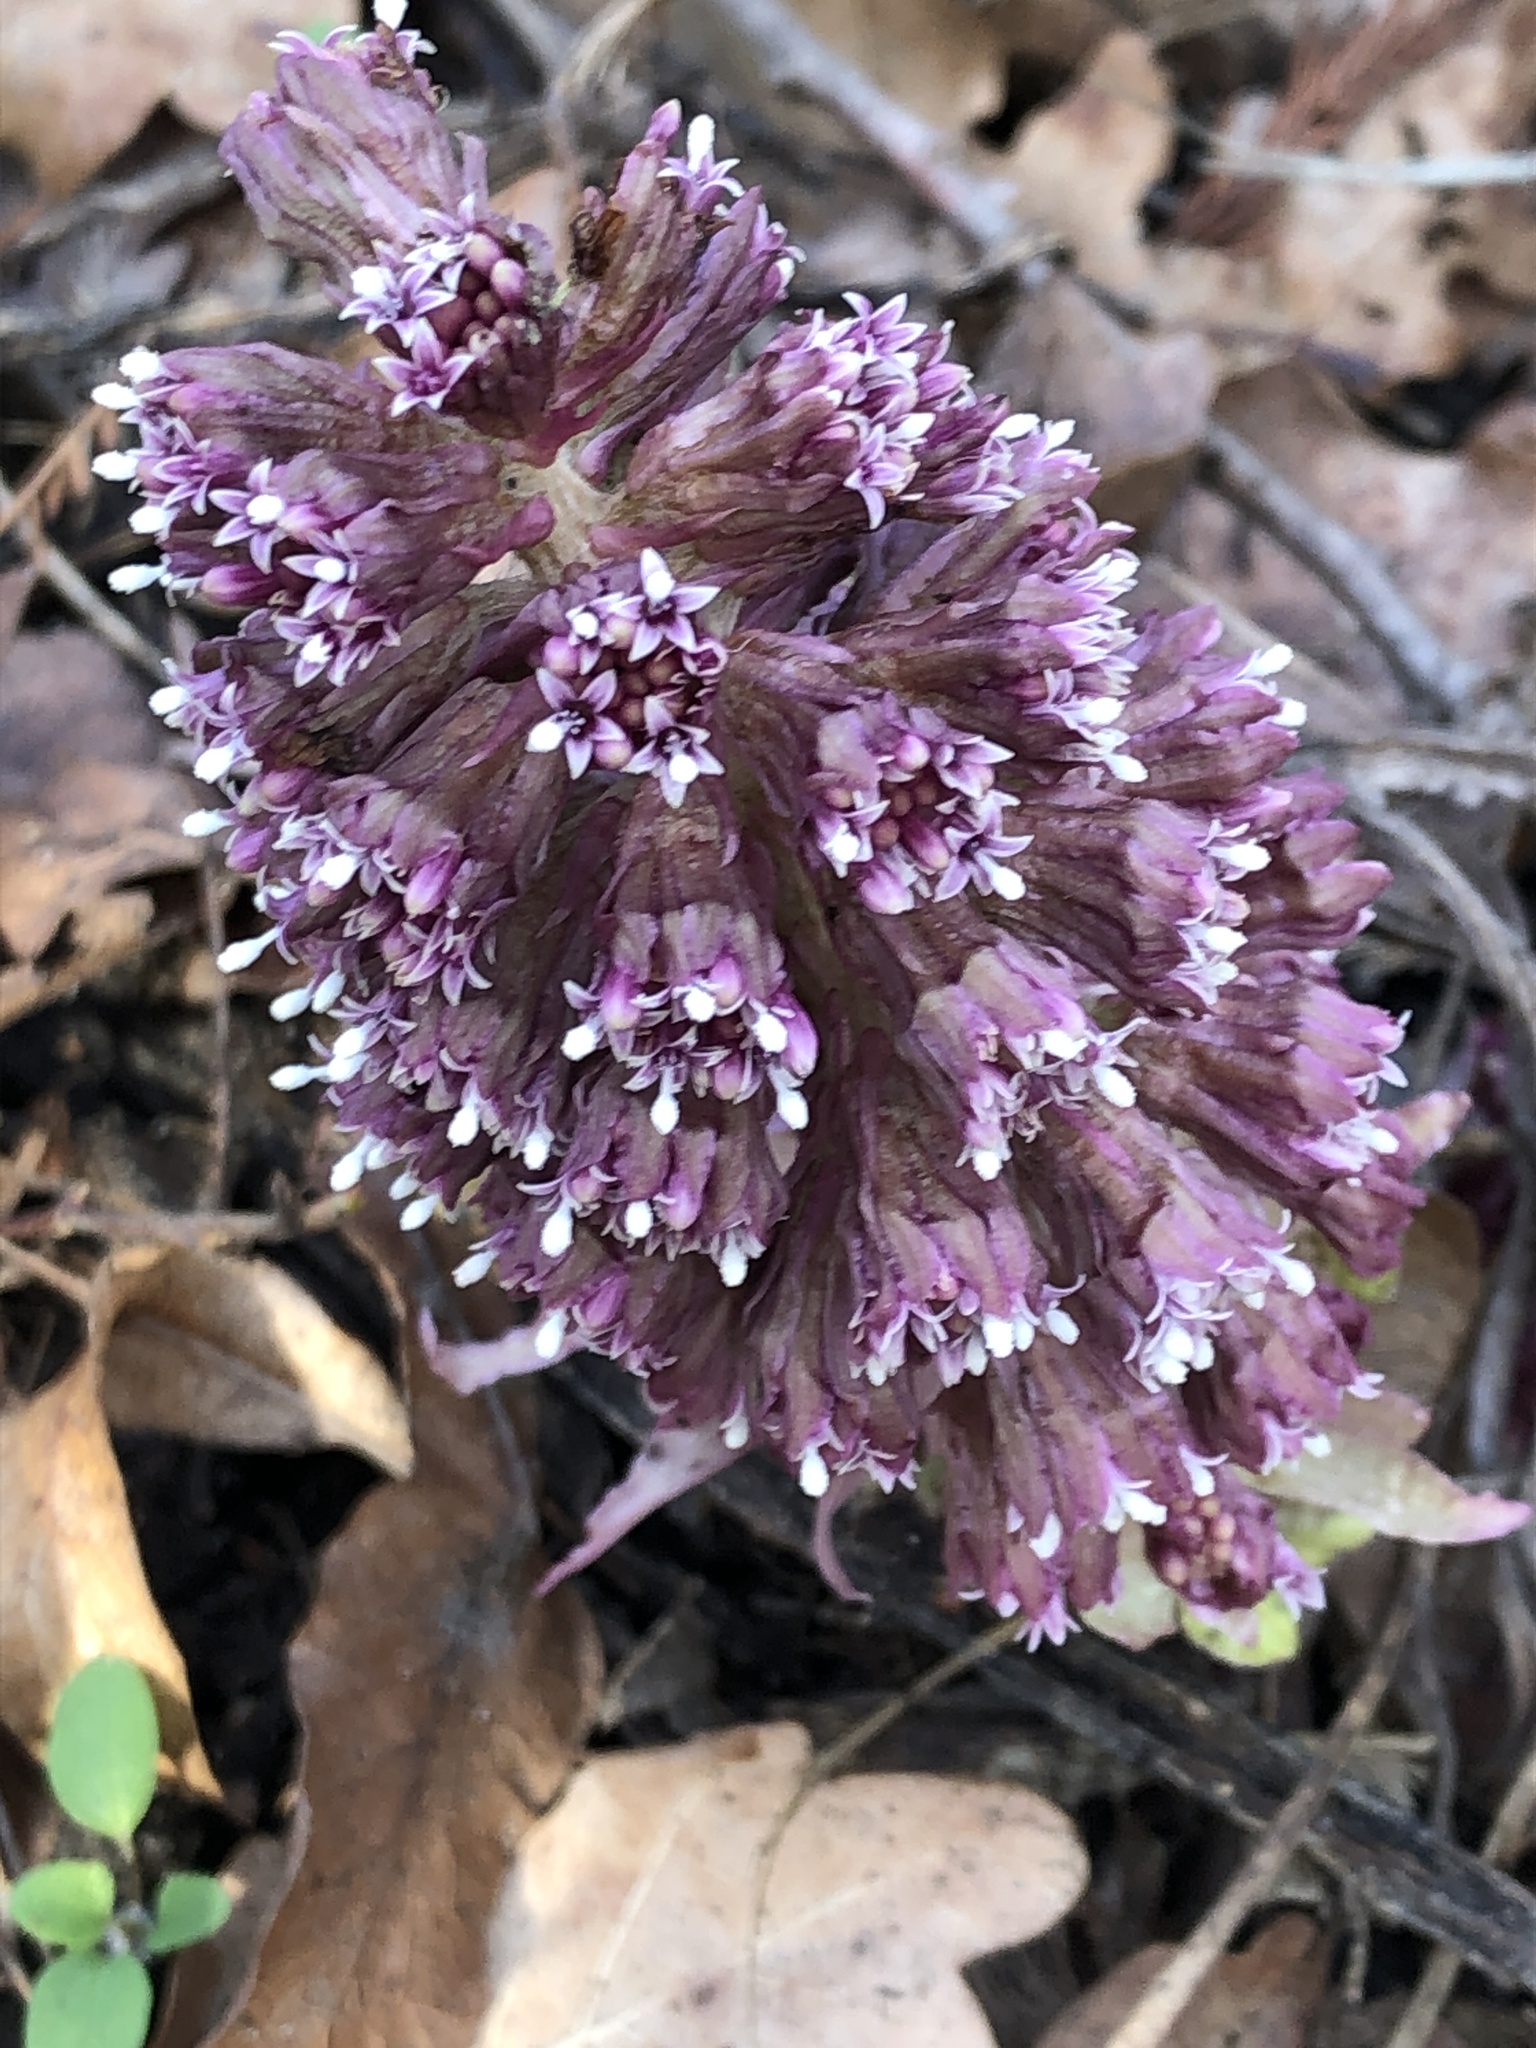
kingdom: Plantae
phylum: Tracheophyta
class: Magnoliopsida
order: Asterales
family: Asteraceae
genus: Petasites
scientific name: Petasites hybridus
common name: Butterbur
